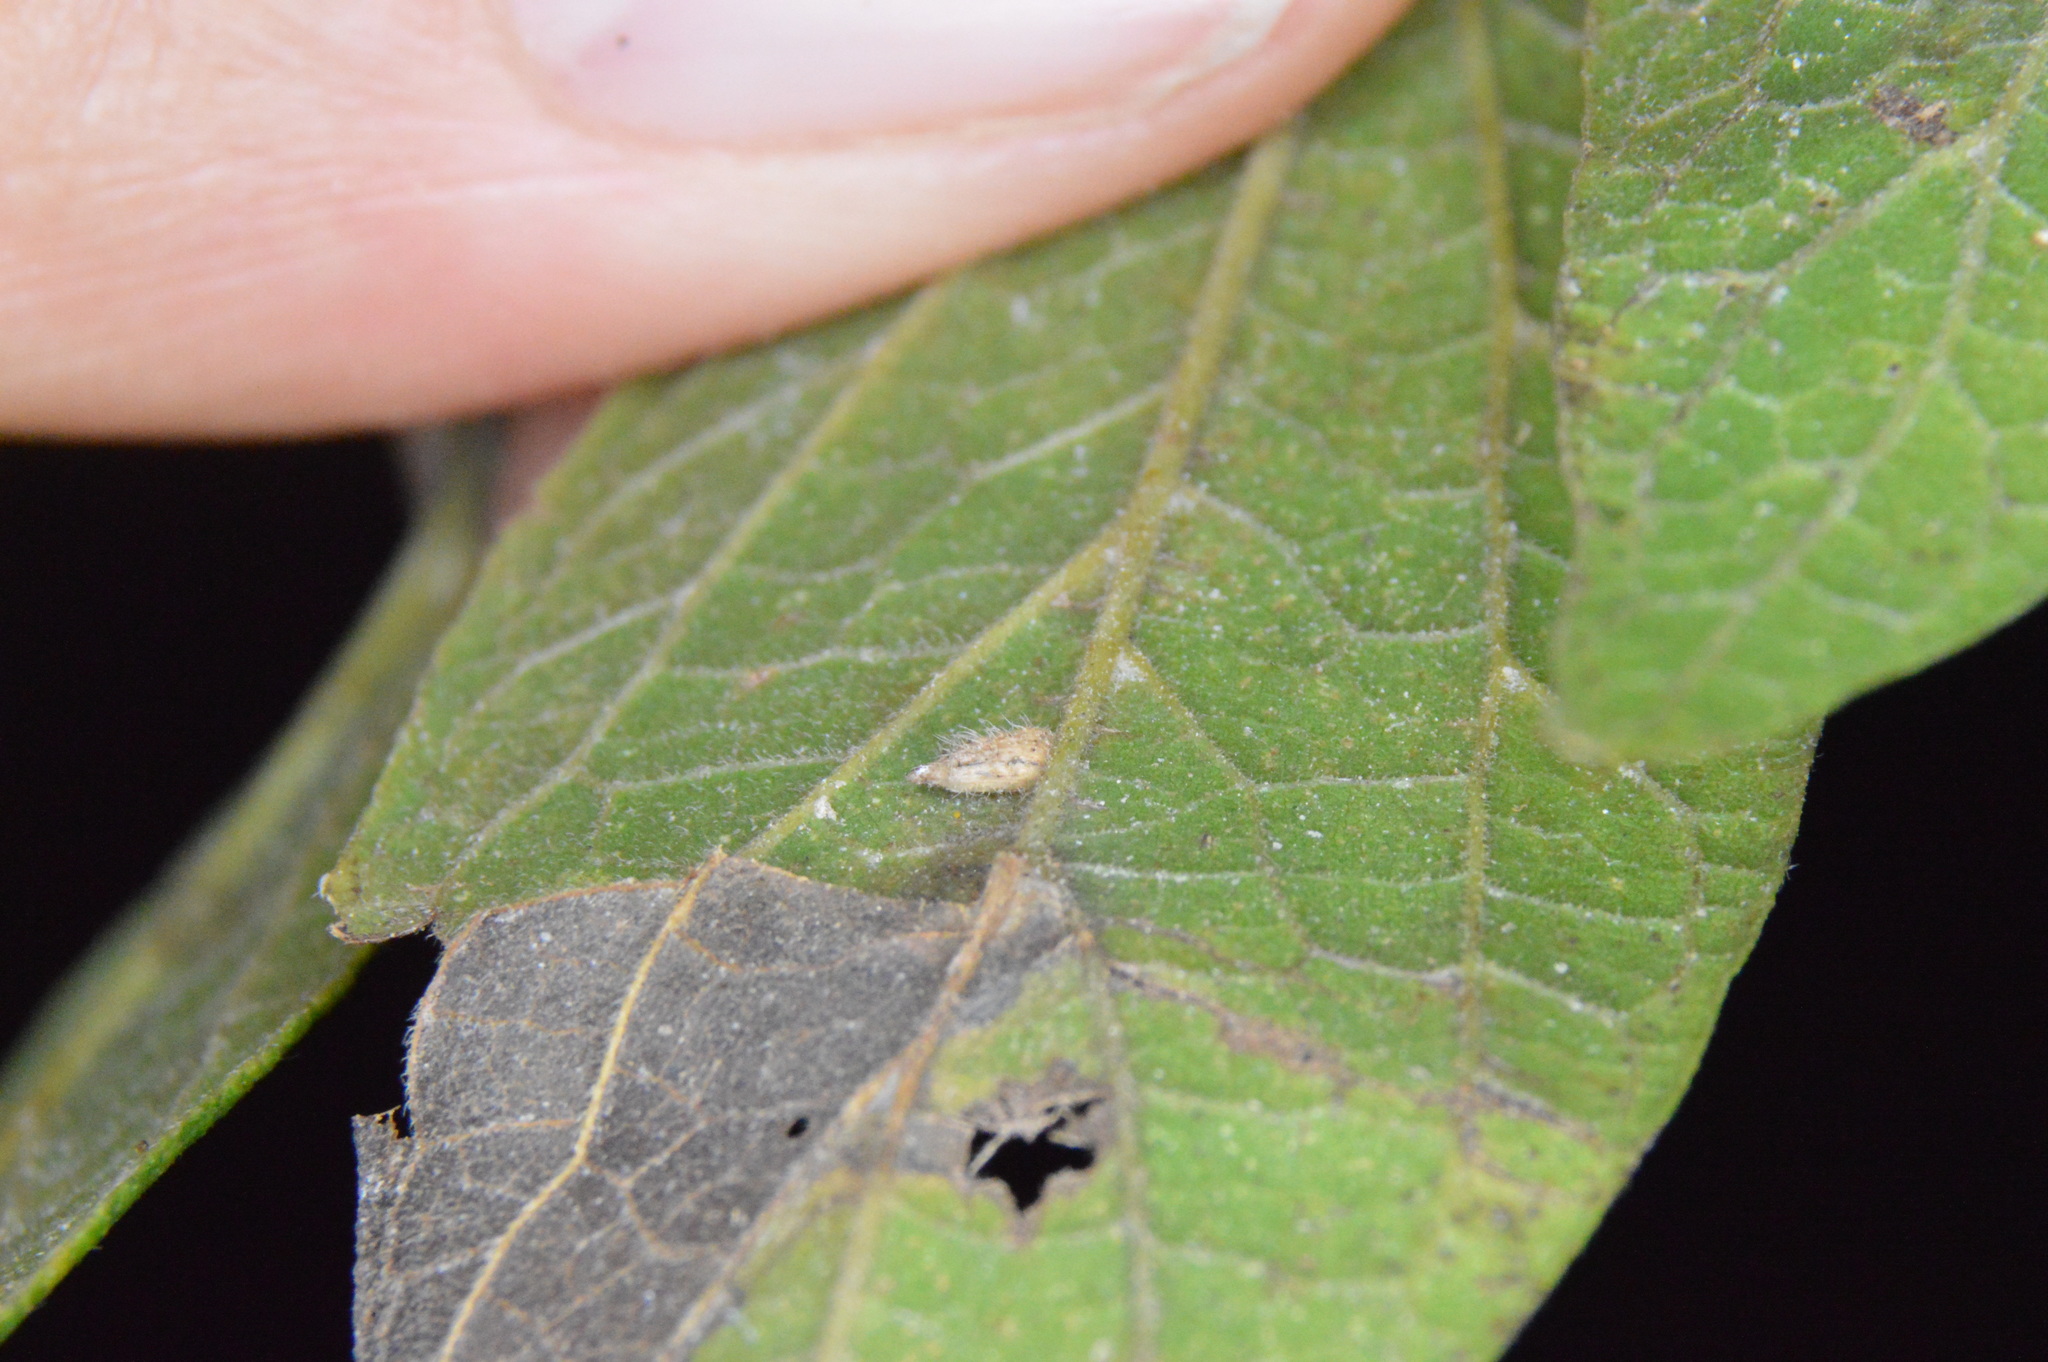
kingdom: Animalia
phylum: Arthropoda
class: Insecta
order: Diptera
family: Cecidomyiidae
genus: Celticecis
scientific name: Celticecis supina
